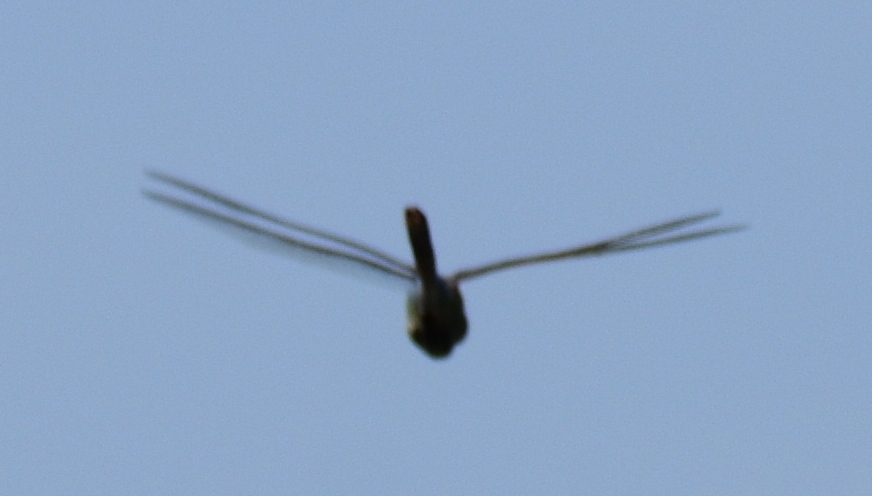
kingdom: Animalia
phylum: Arthropoda
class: Insecta
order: Odonata
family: Aeshnidae
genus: Anax
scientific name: Anax junius
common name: Common green darner
